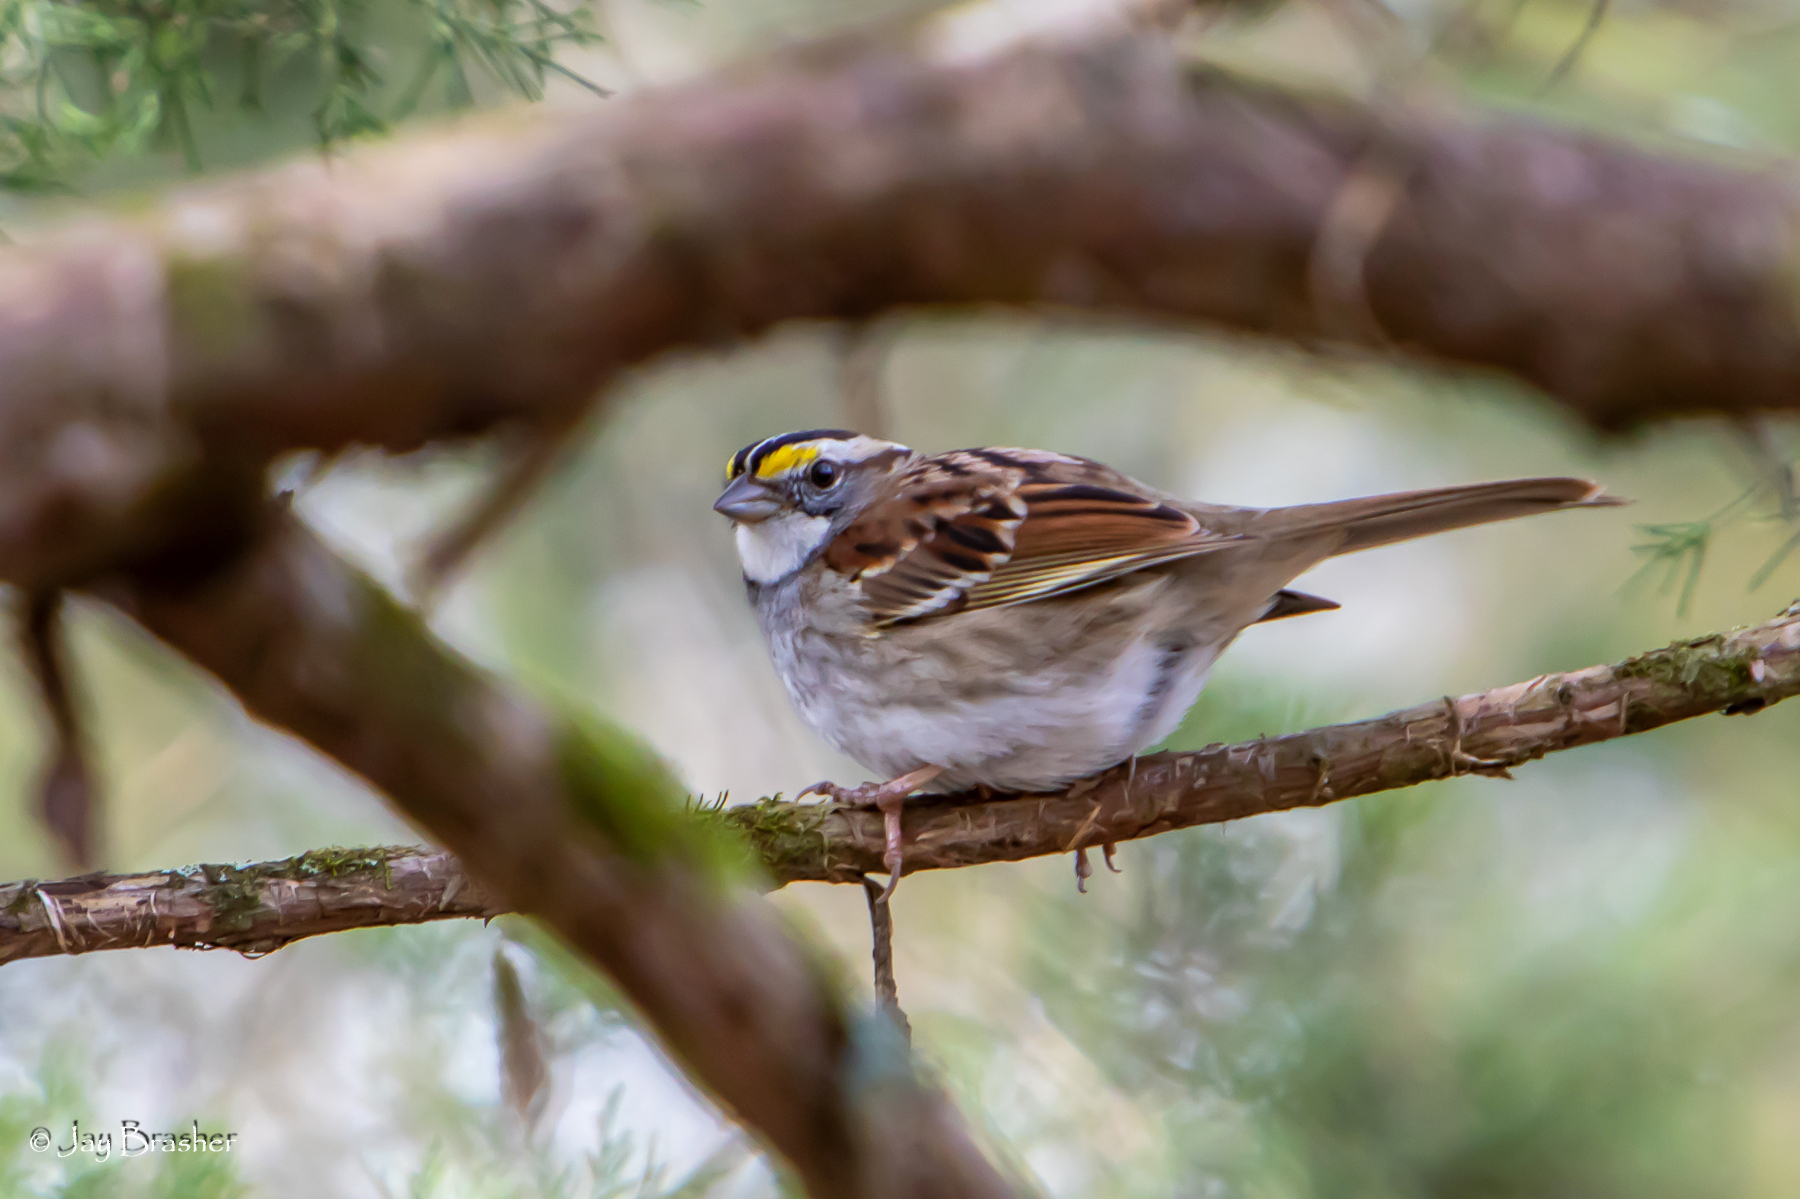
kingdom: Animalia
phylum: Chordata
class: Aves
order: Passeriformes
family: Passerellidae
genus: Zonotrichia
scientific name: Zonotrichia albicollis
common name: White-throated sparrow
